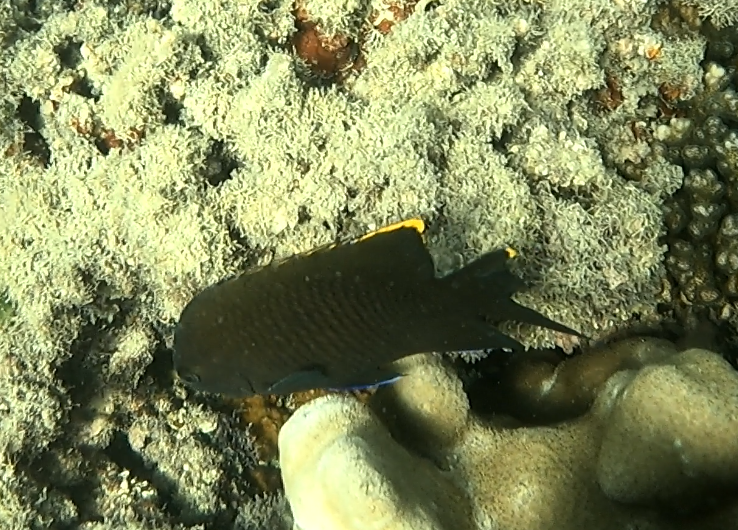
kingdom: Animalia
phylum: Chordata
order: Perciformes
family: Pomacentridae
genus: Stegastes
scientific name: Stegastes apicalis
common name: Australian gregory
